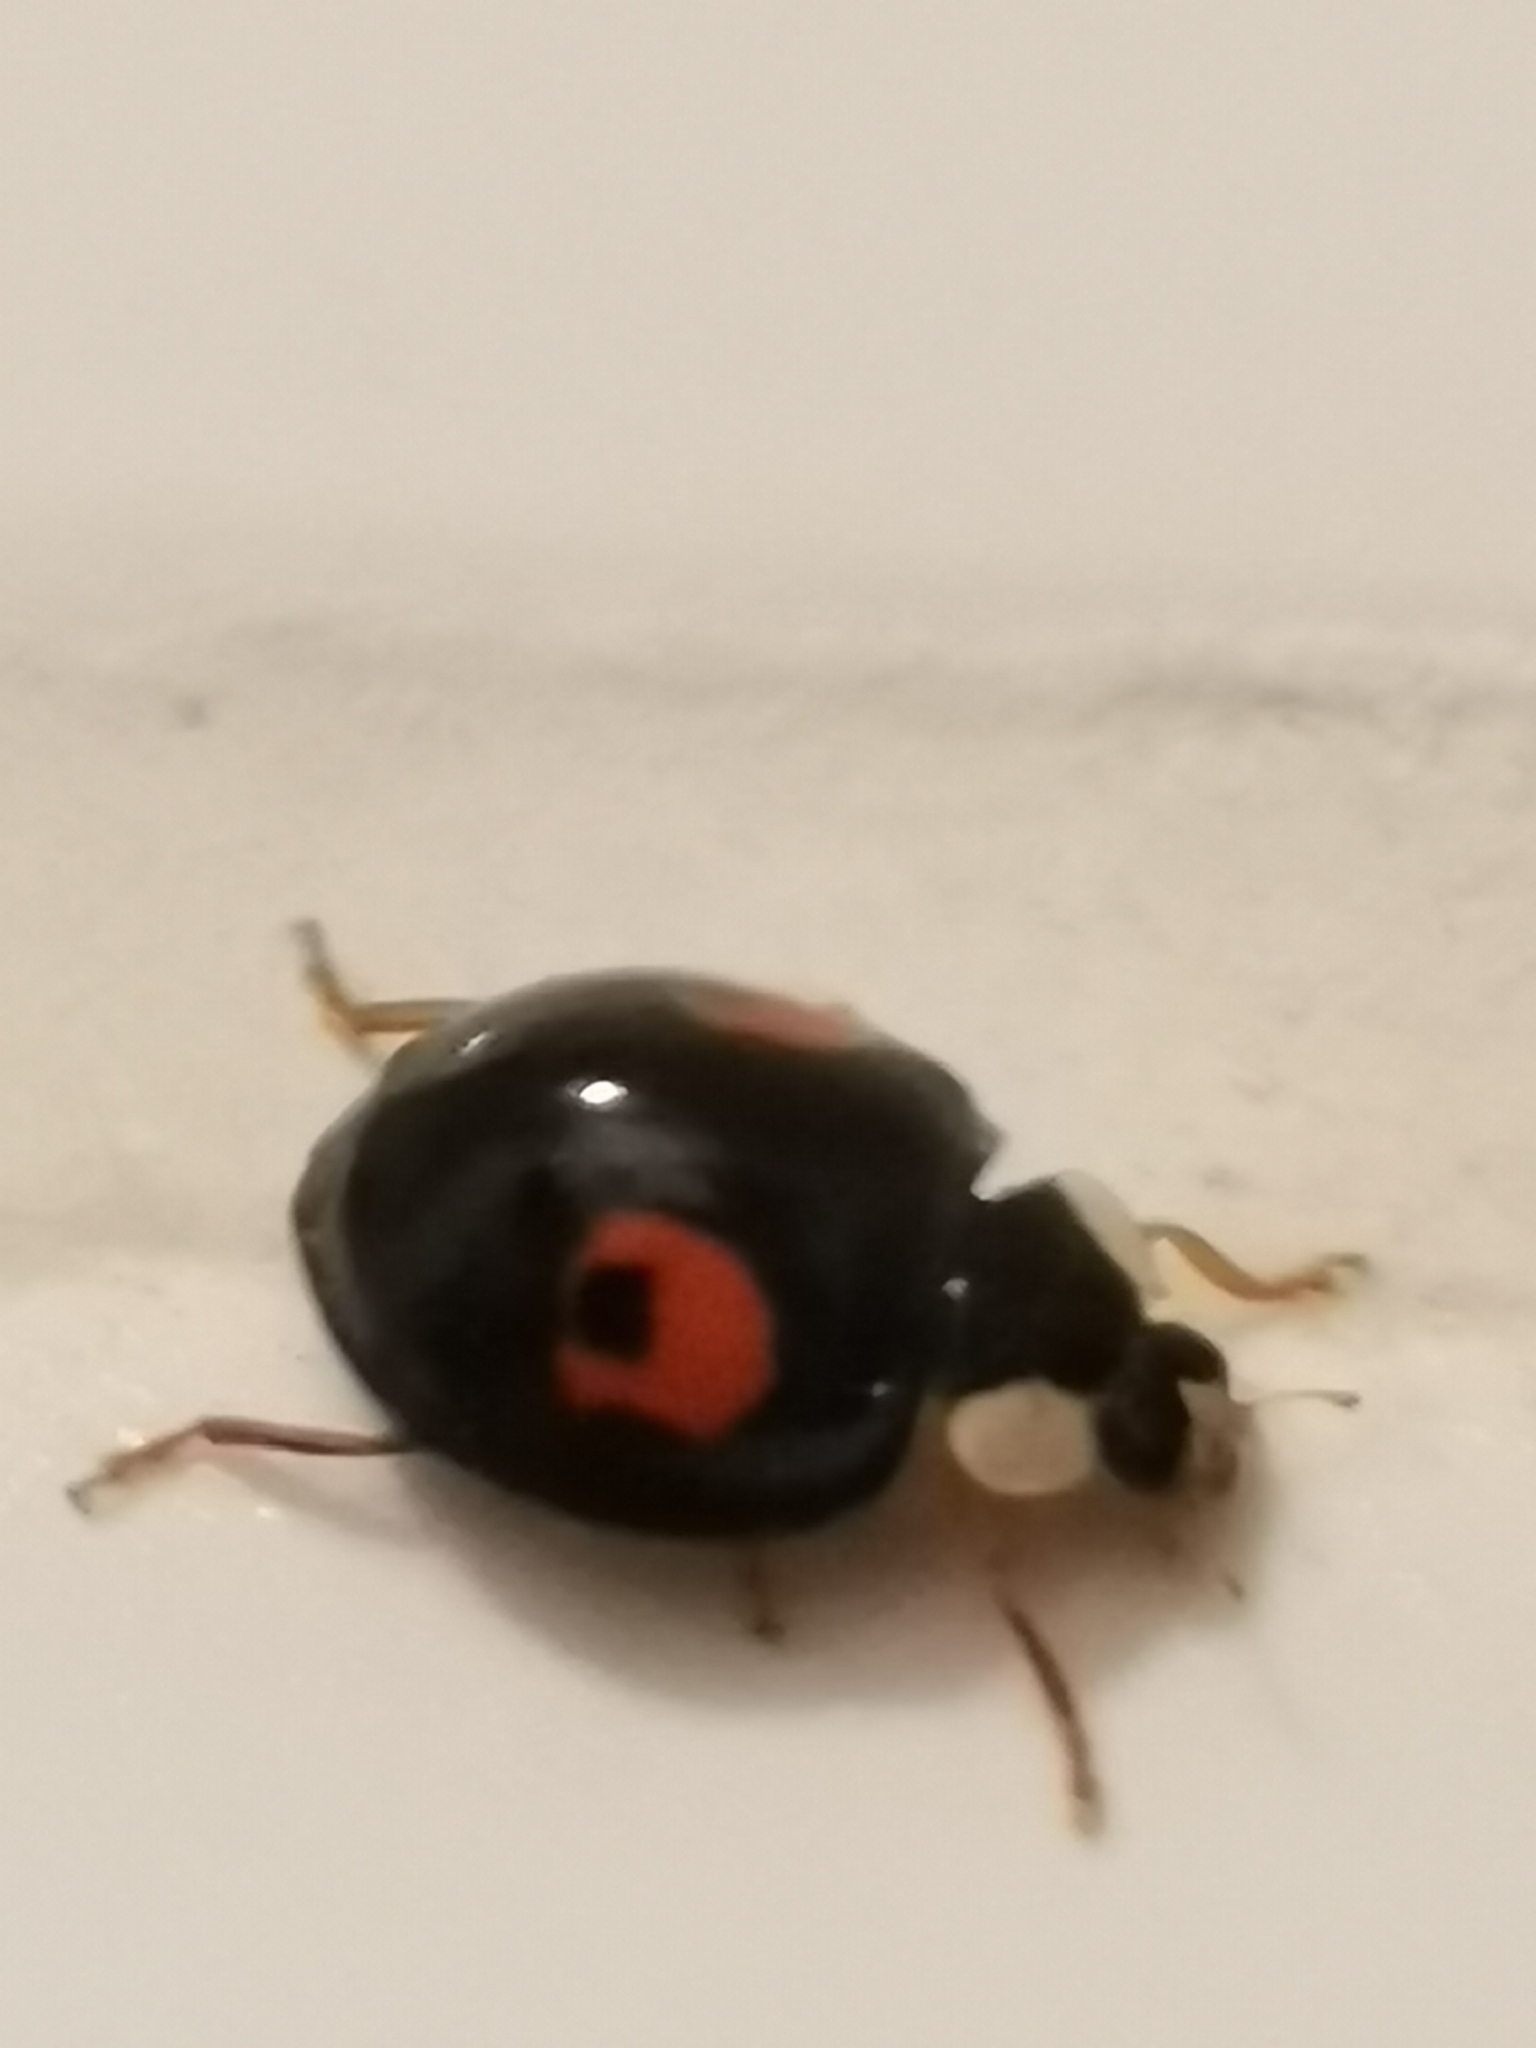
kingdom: Animalia
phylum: Arthropoda
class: Insecta
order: Coleoptera
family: Coccinellidae
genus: Harmonia
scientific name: Harmonia axyridis
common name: Harlequin ladybird
